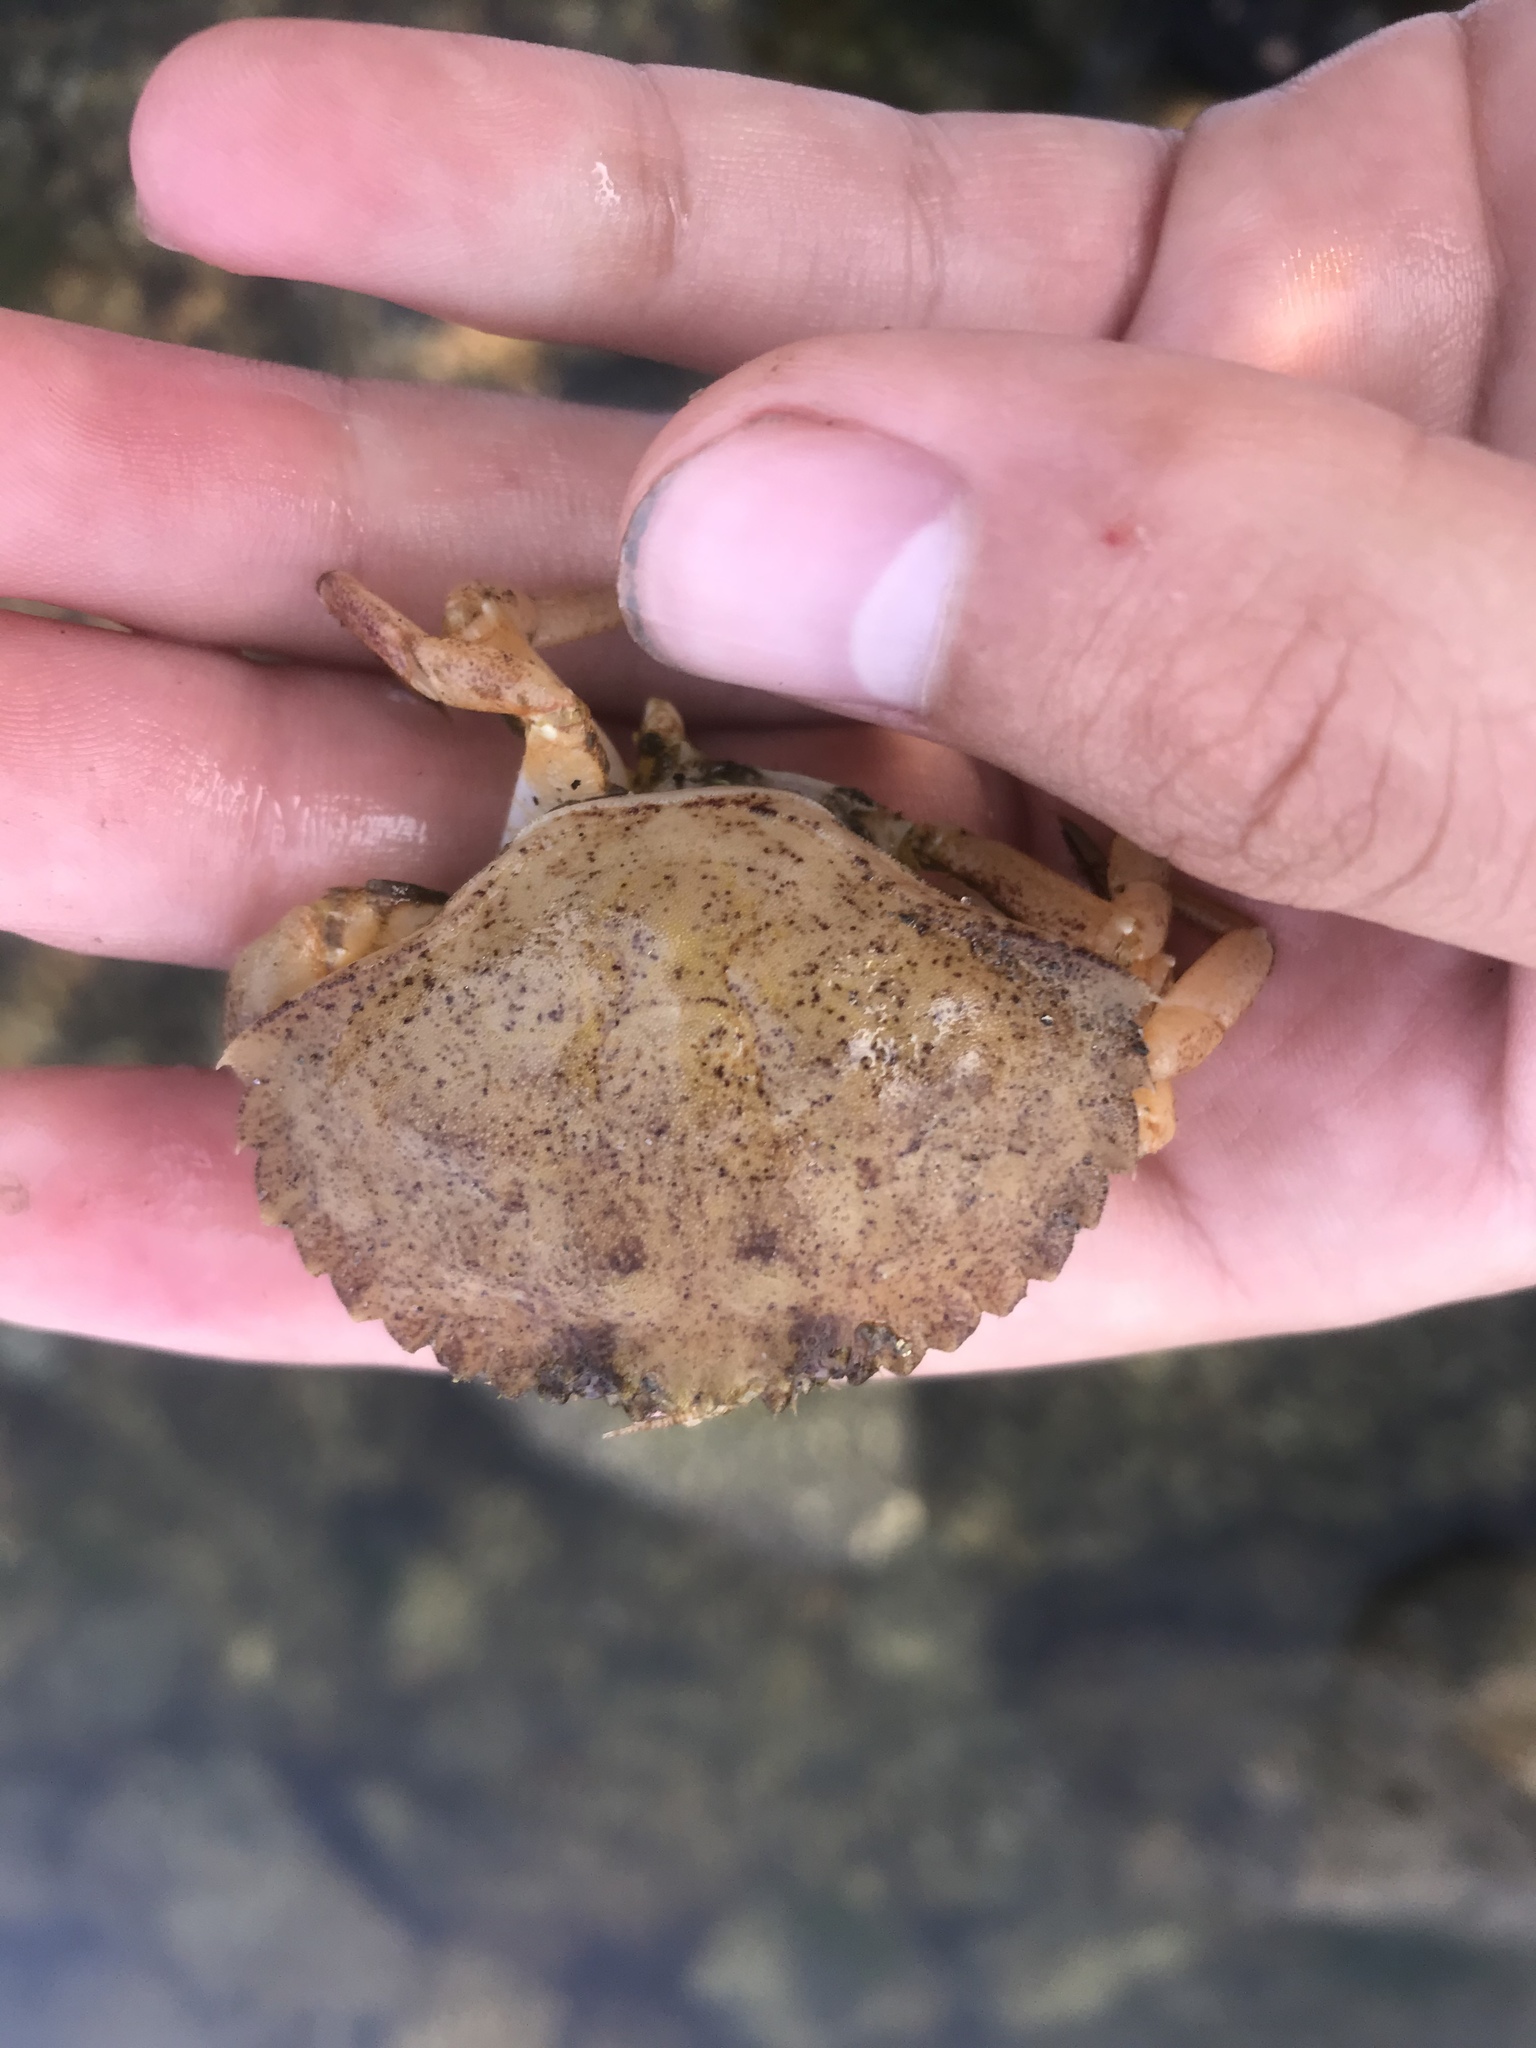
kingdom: Animalia
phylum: Arthropoda
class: Malacostraca
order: Decapoda
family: Cancridae
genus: Metacarcinus
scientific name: Metacarcinus anthonyi
